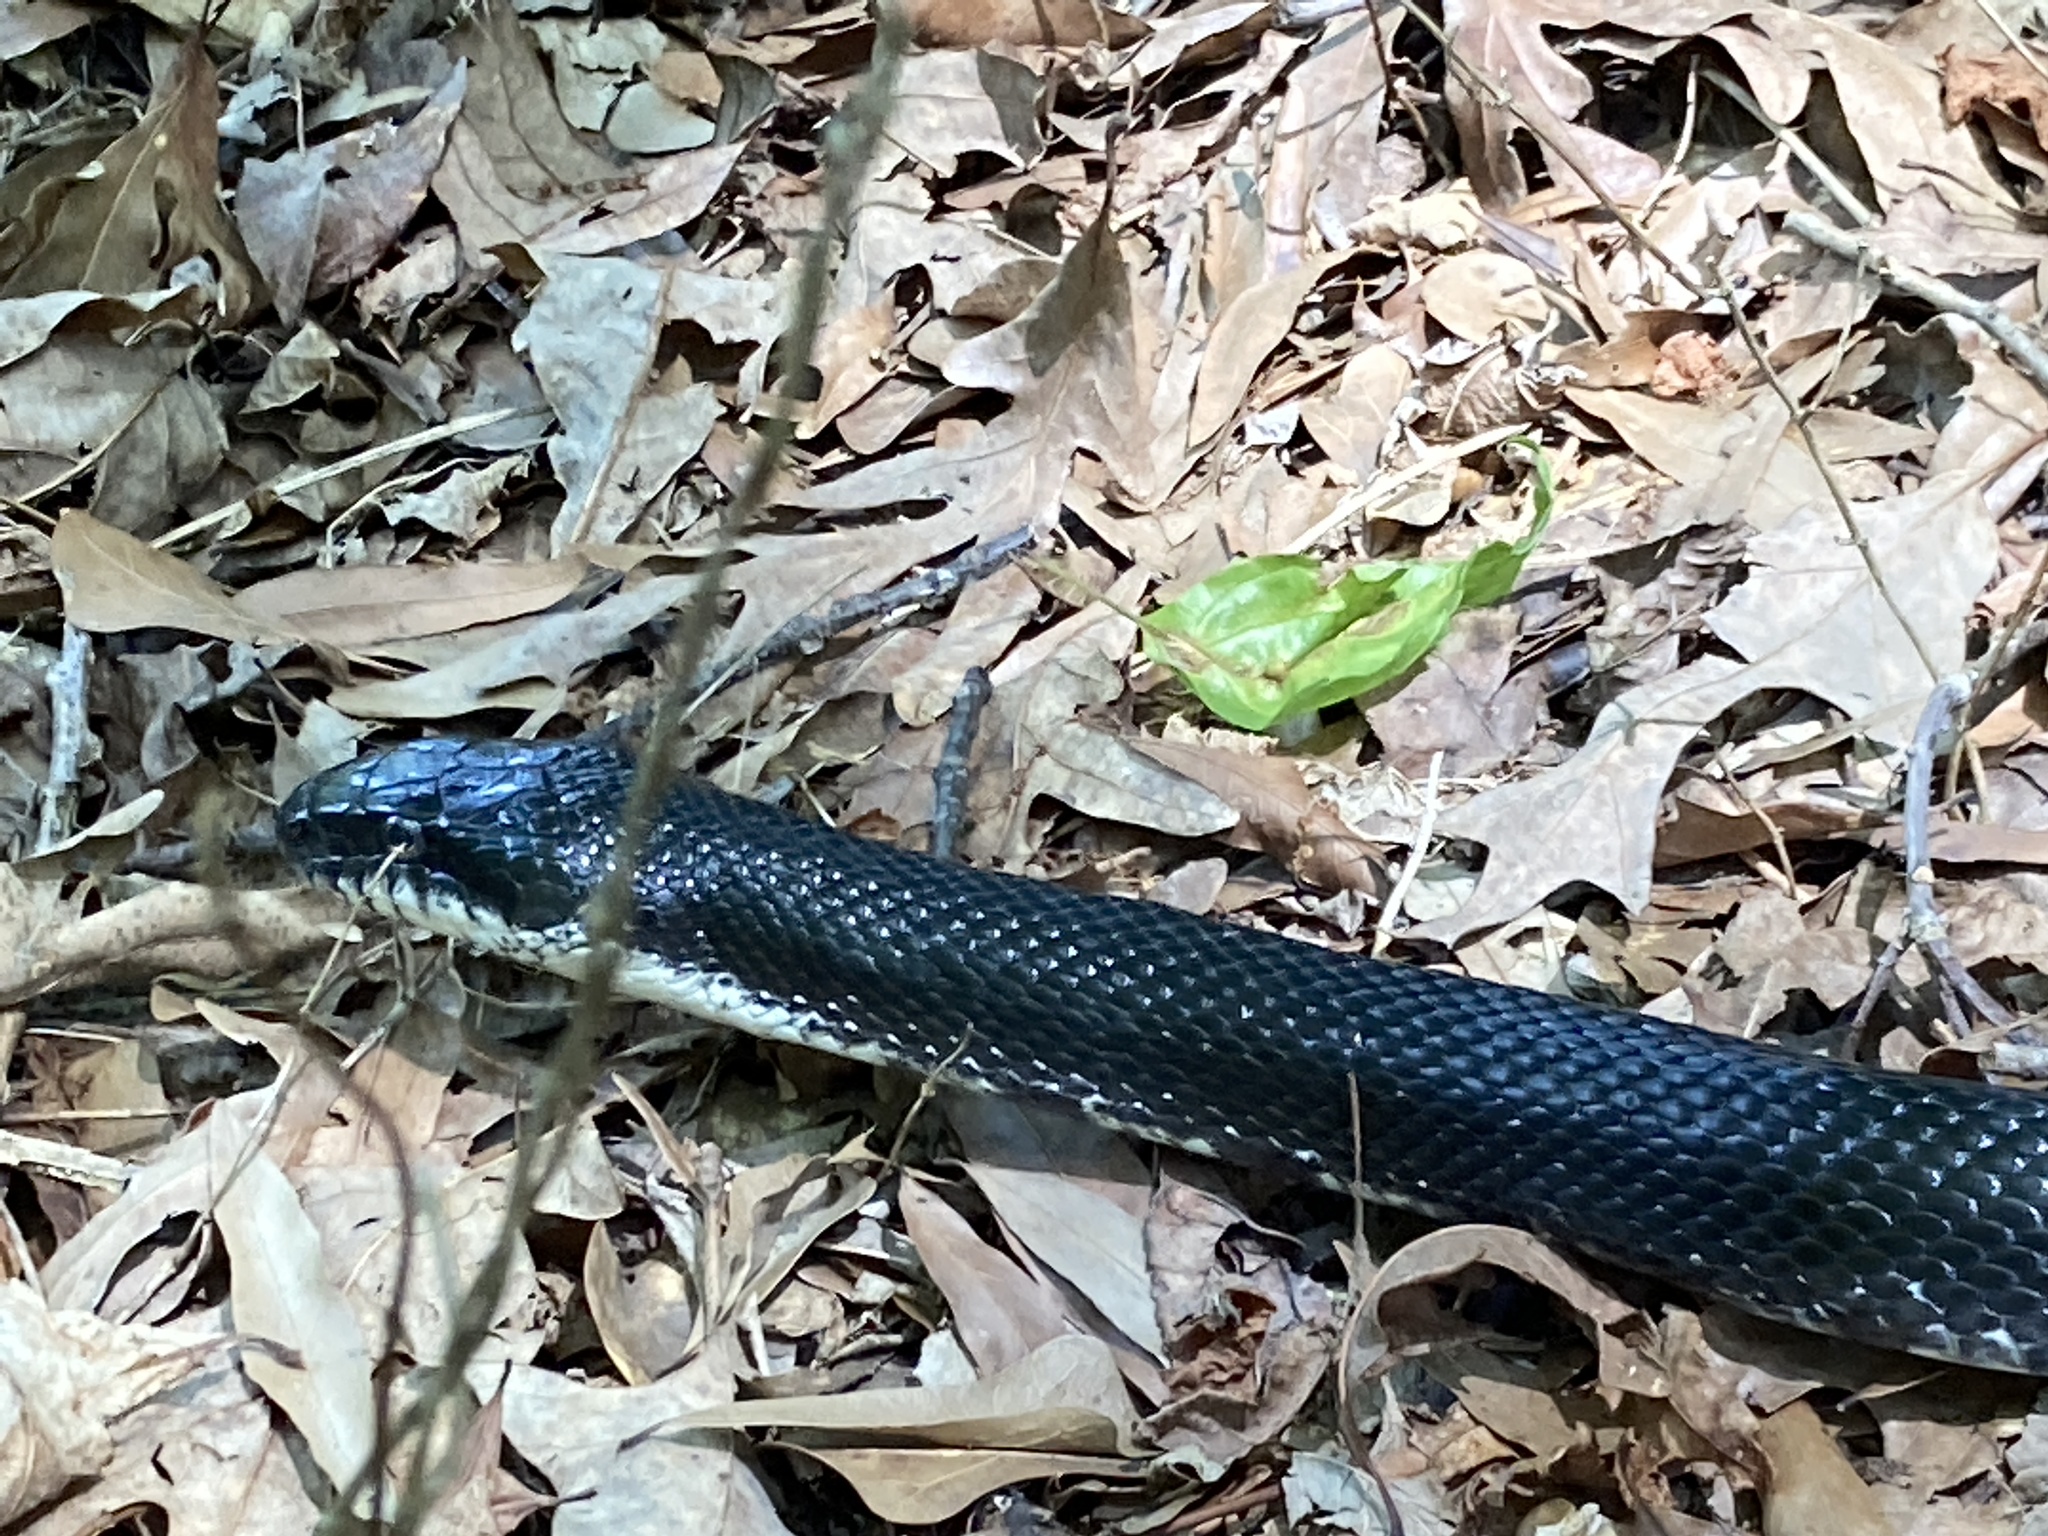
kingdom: Animalia
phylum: Chordata
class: Squamata
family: Colubridae
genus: Pantherophis
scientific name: Pantherophis alleghaniensis
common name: Eastern rat snake
